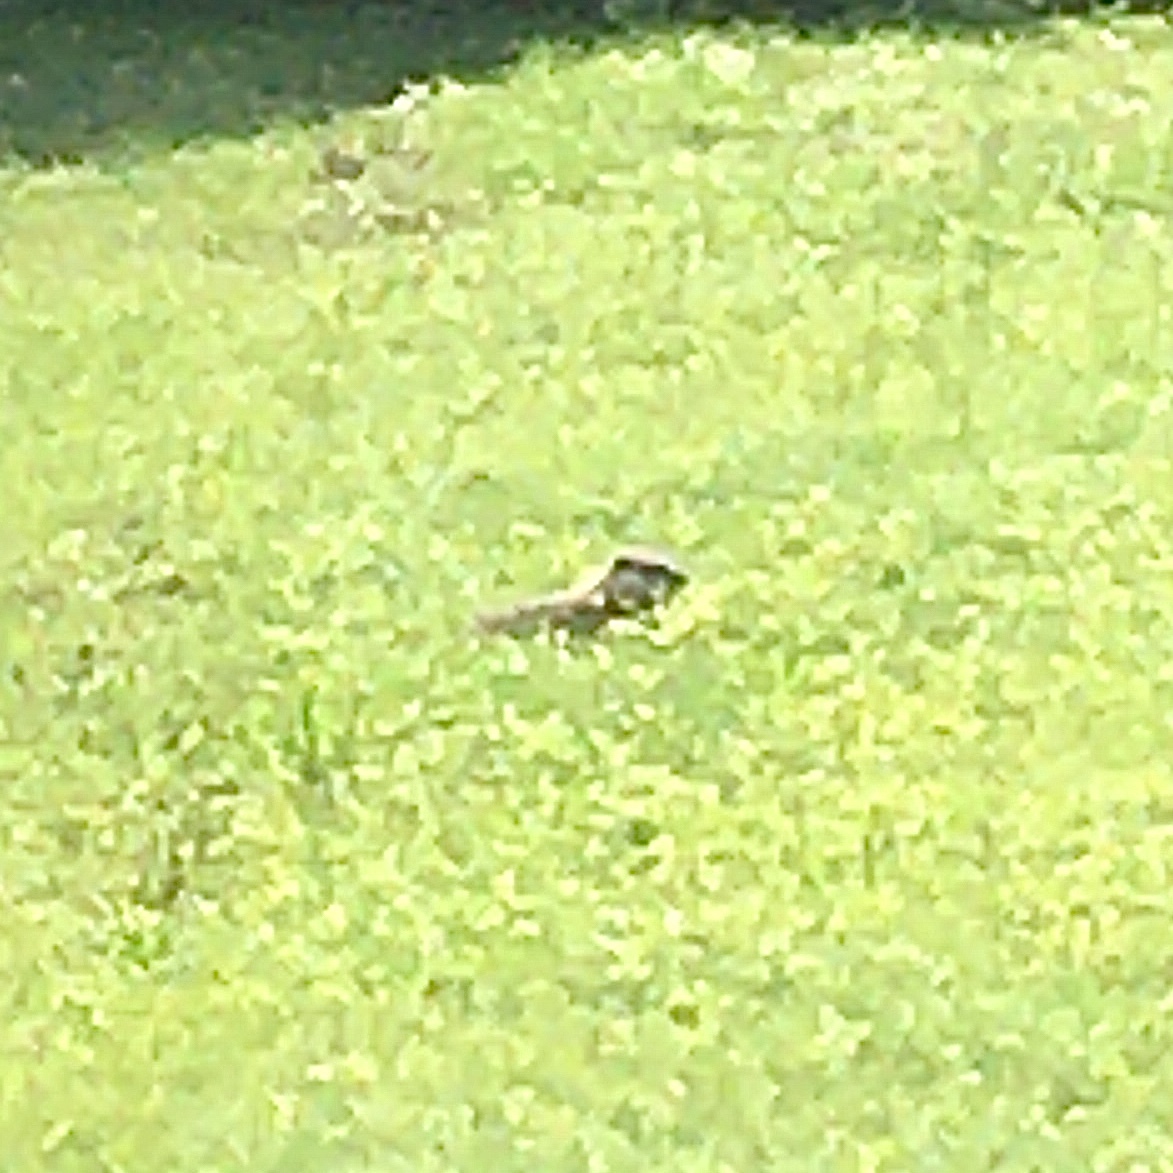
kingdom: Animalia
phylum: Chordata
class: Mammalia
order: Rodentia
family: Sciuridae
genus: Marmota
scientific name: Marmota monax
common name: Groundhog
